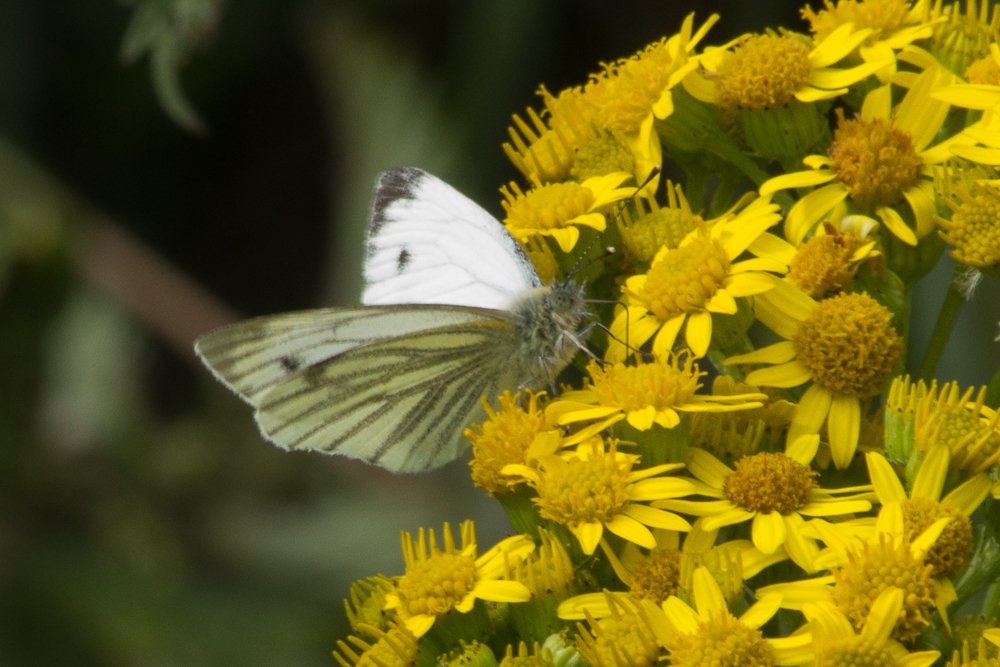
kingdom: Animalia
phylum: Arthropoda
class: Insecta
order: Lepidoptera
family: Pieridae
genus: Pieris
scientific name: Pieris napi
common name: Green-veined white
